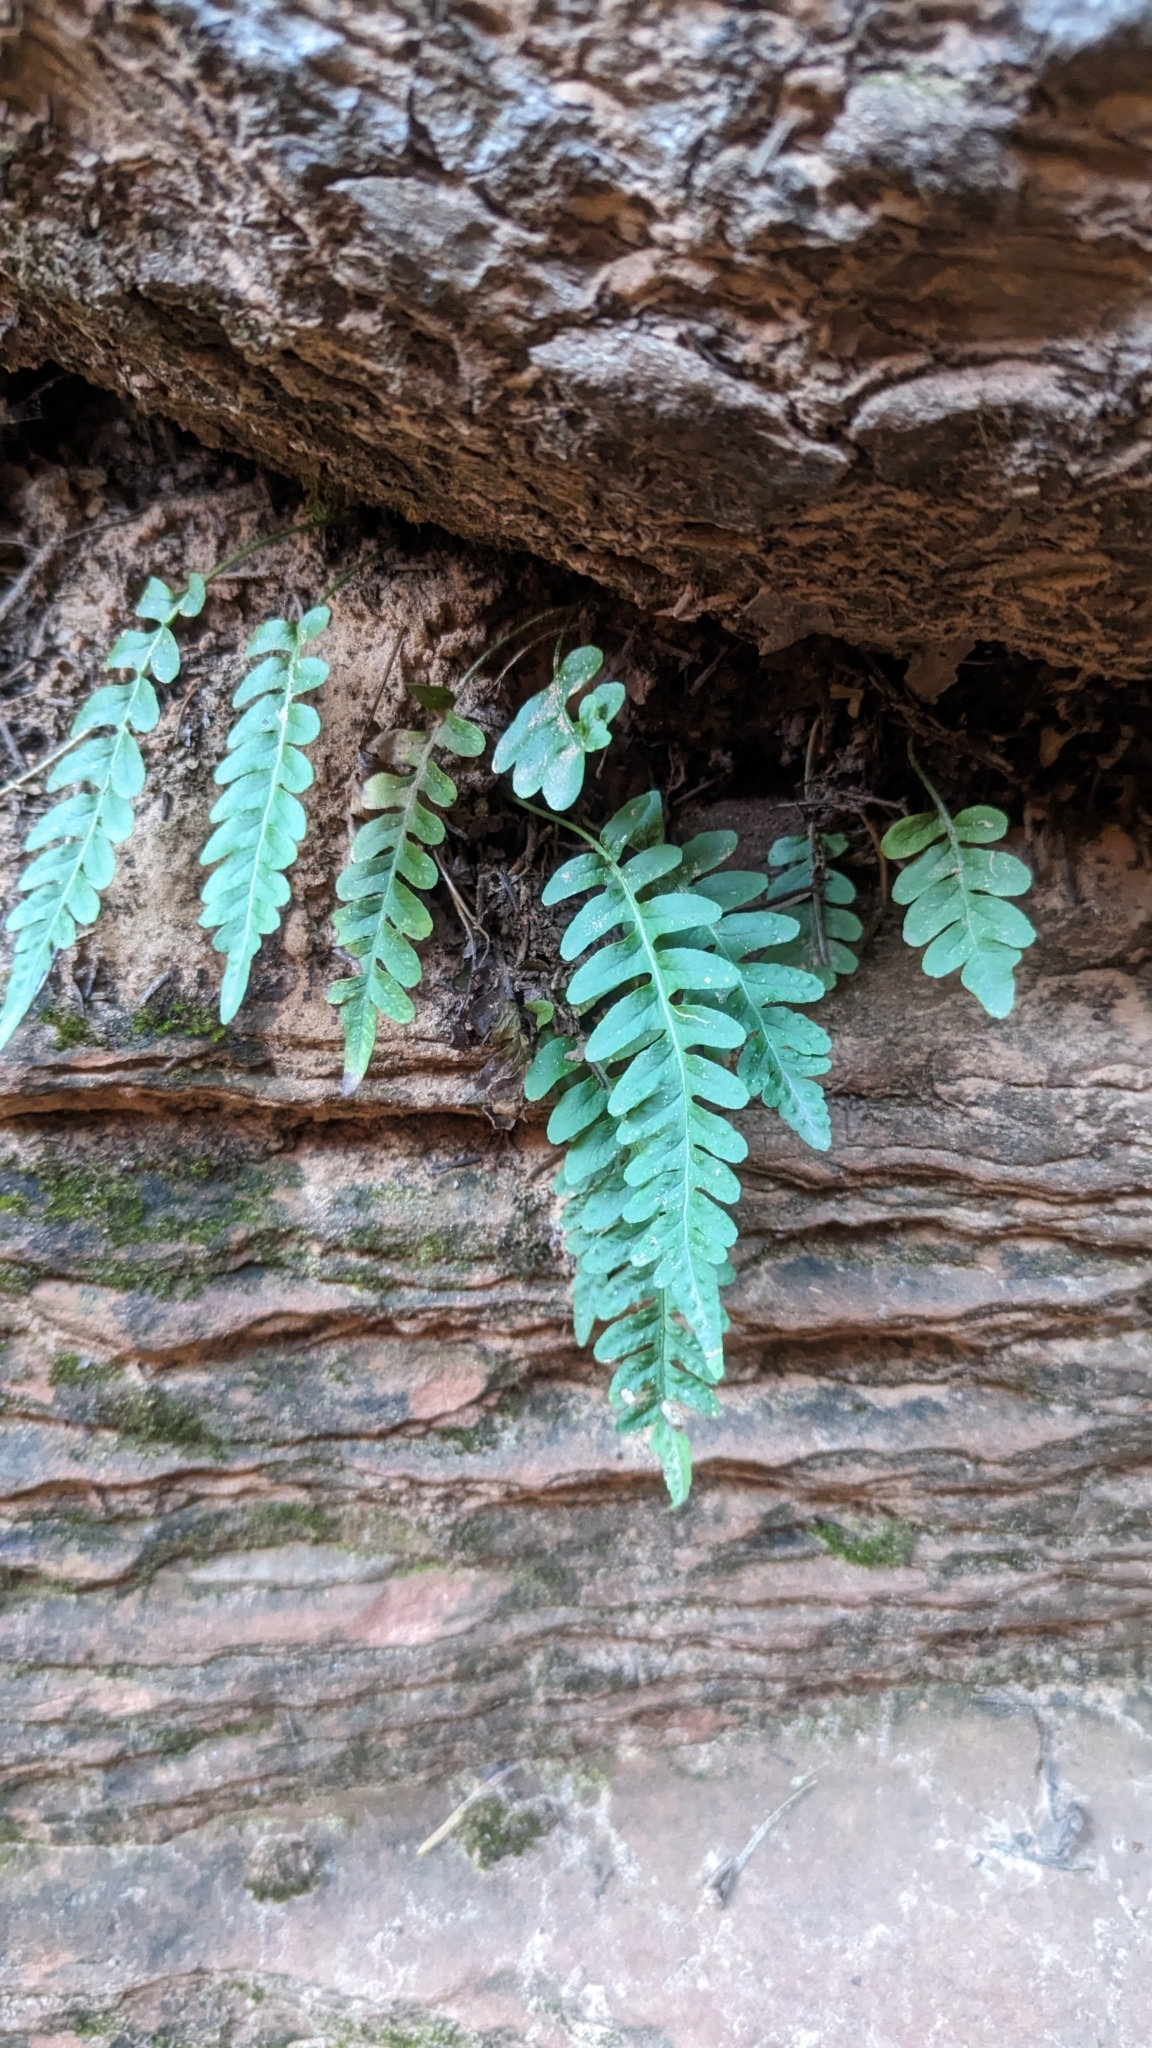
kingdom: Plantae
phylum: Tracheophyta
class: Polypodiopsida
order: Polypodiales
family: Polypodiaceae
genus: Polypodium
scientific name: Polypodium hesperium
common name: Western polypody
